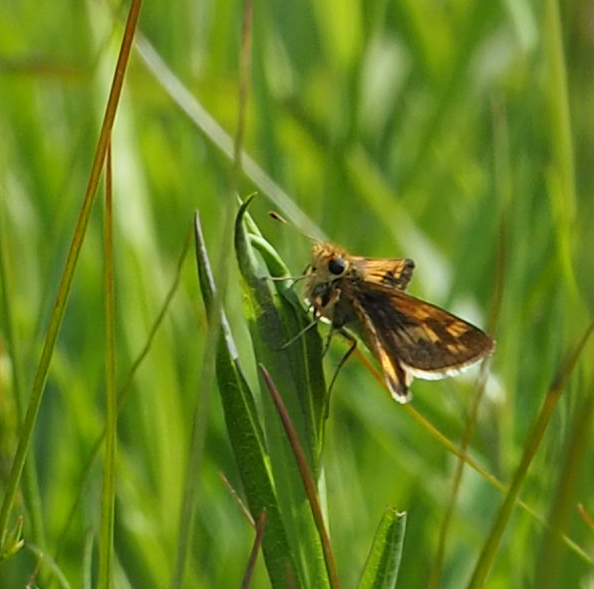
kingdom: Animalia
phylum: Arthropoda
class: Insecta
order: Lepidoptera
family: Hesperiidae
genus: Polites
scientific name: Polites coras
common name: Peck's skipper
